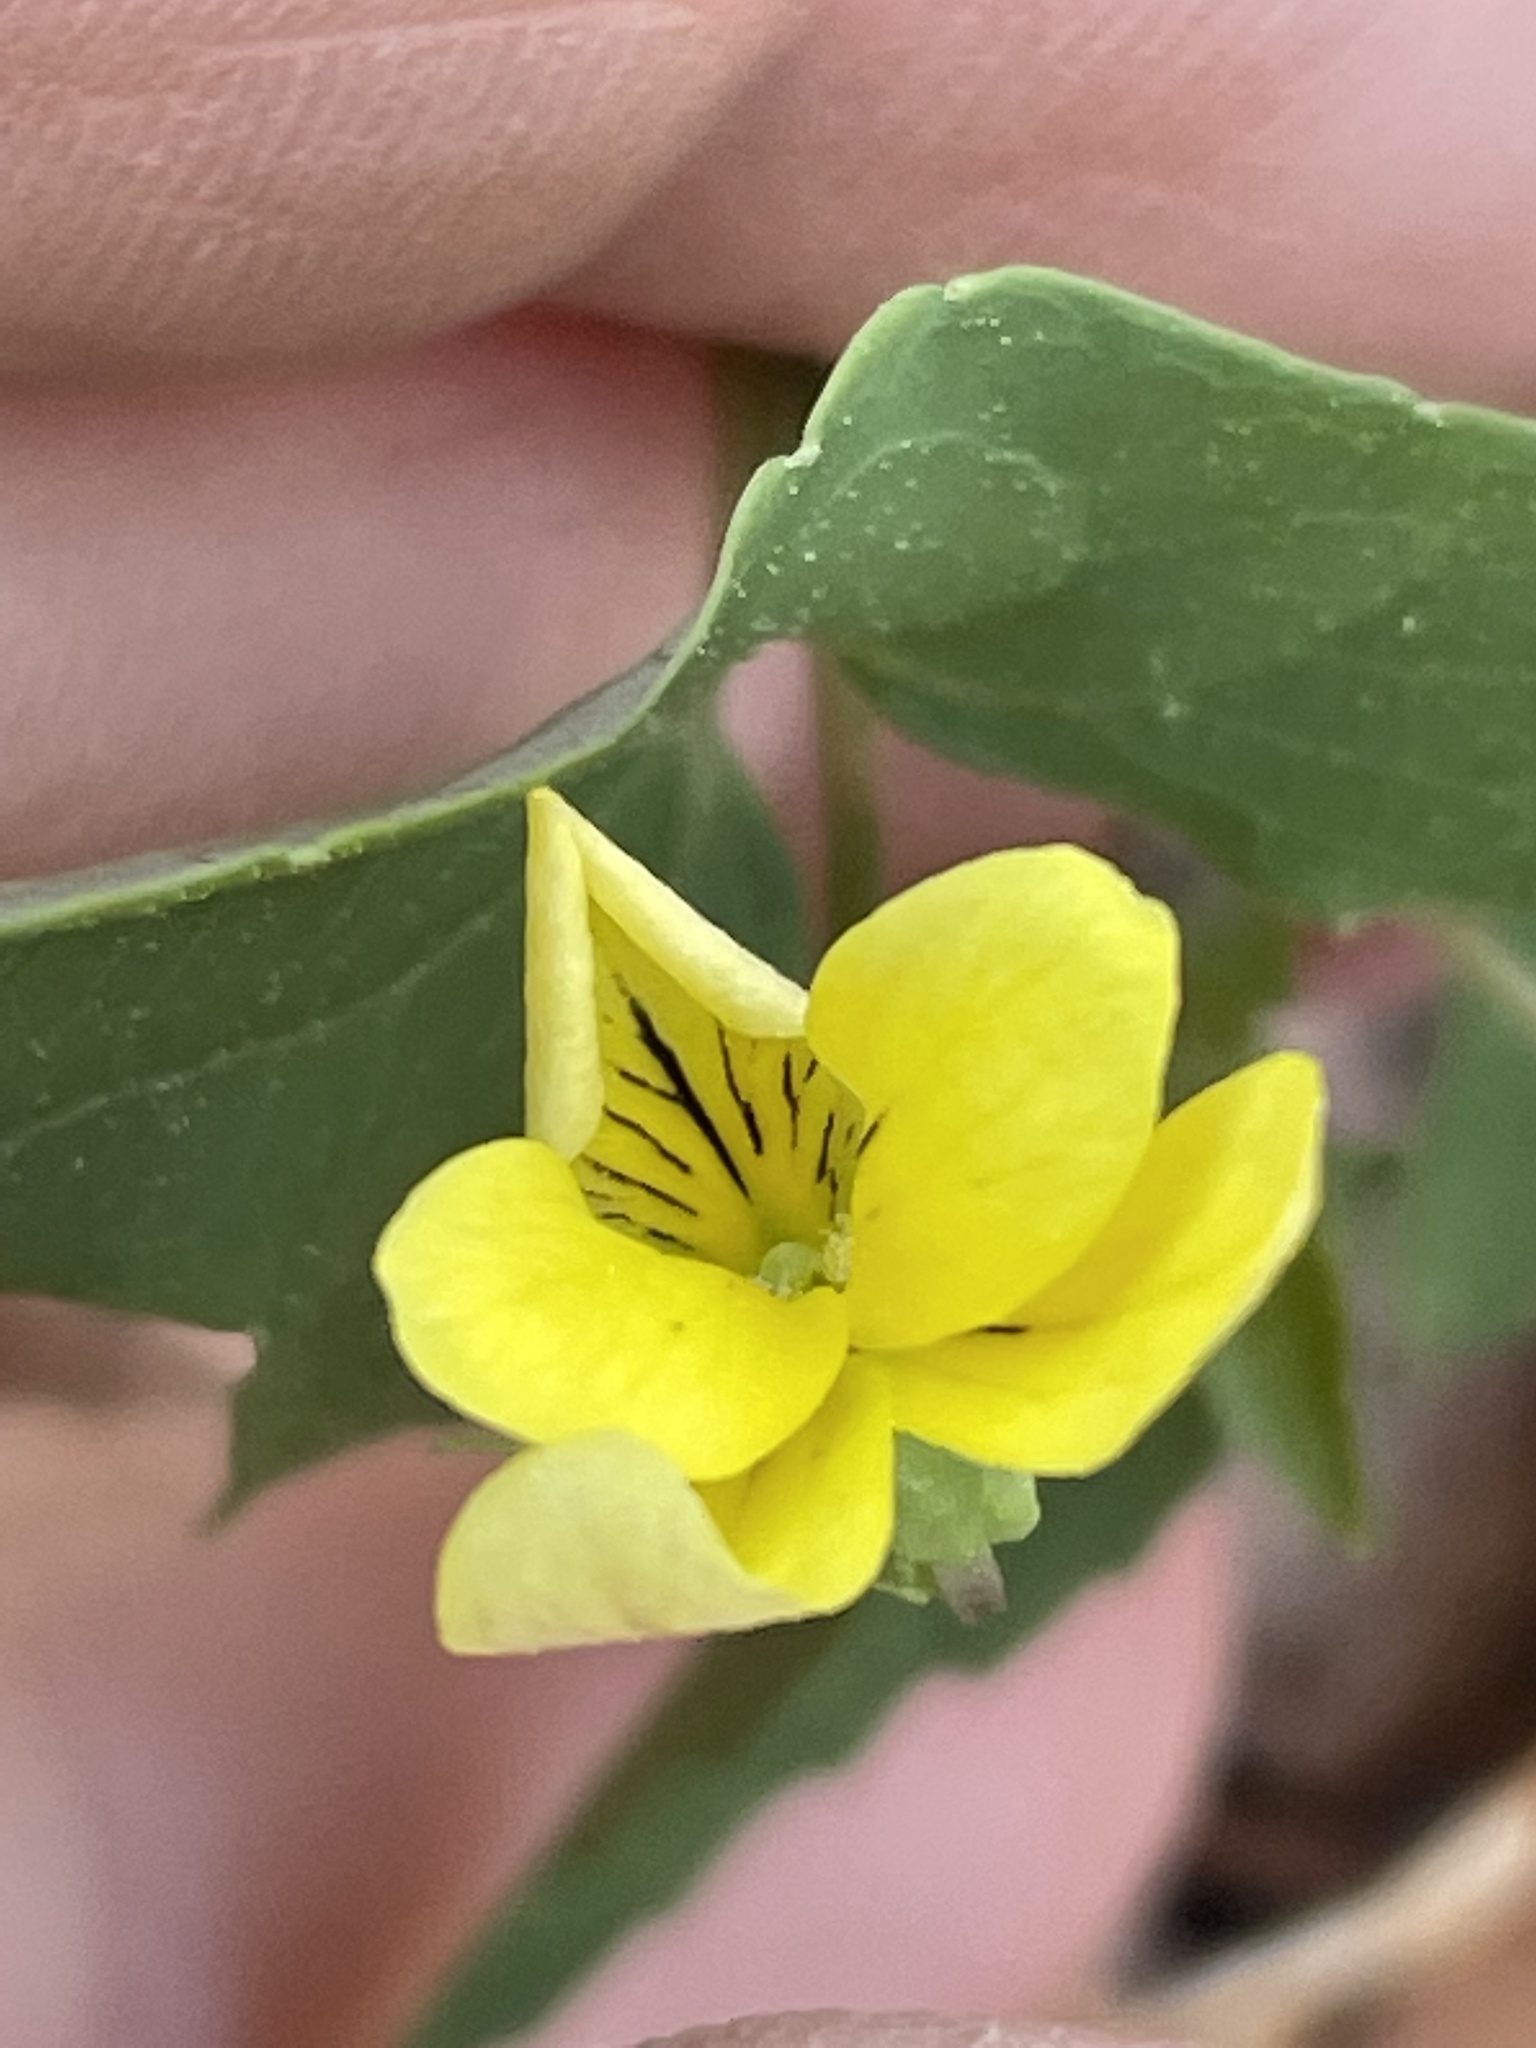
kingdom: Plantae
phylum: Tracheophyta
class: Magnoliopsida
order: Malpighiales
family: Violaceae
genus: Viola
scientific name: Viola hastata
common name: Spear-leaf violet
